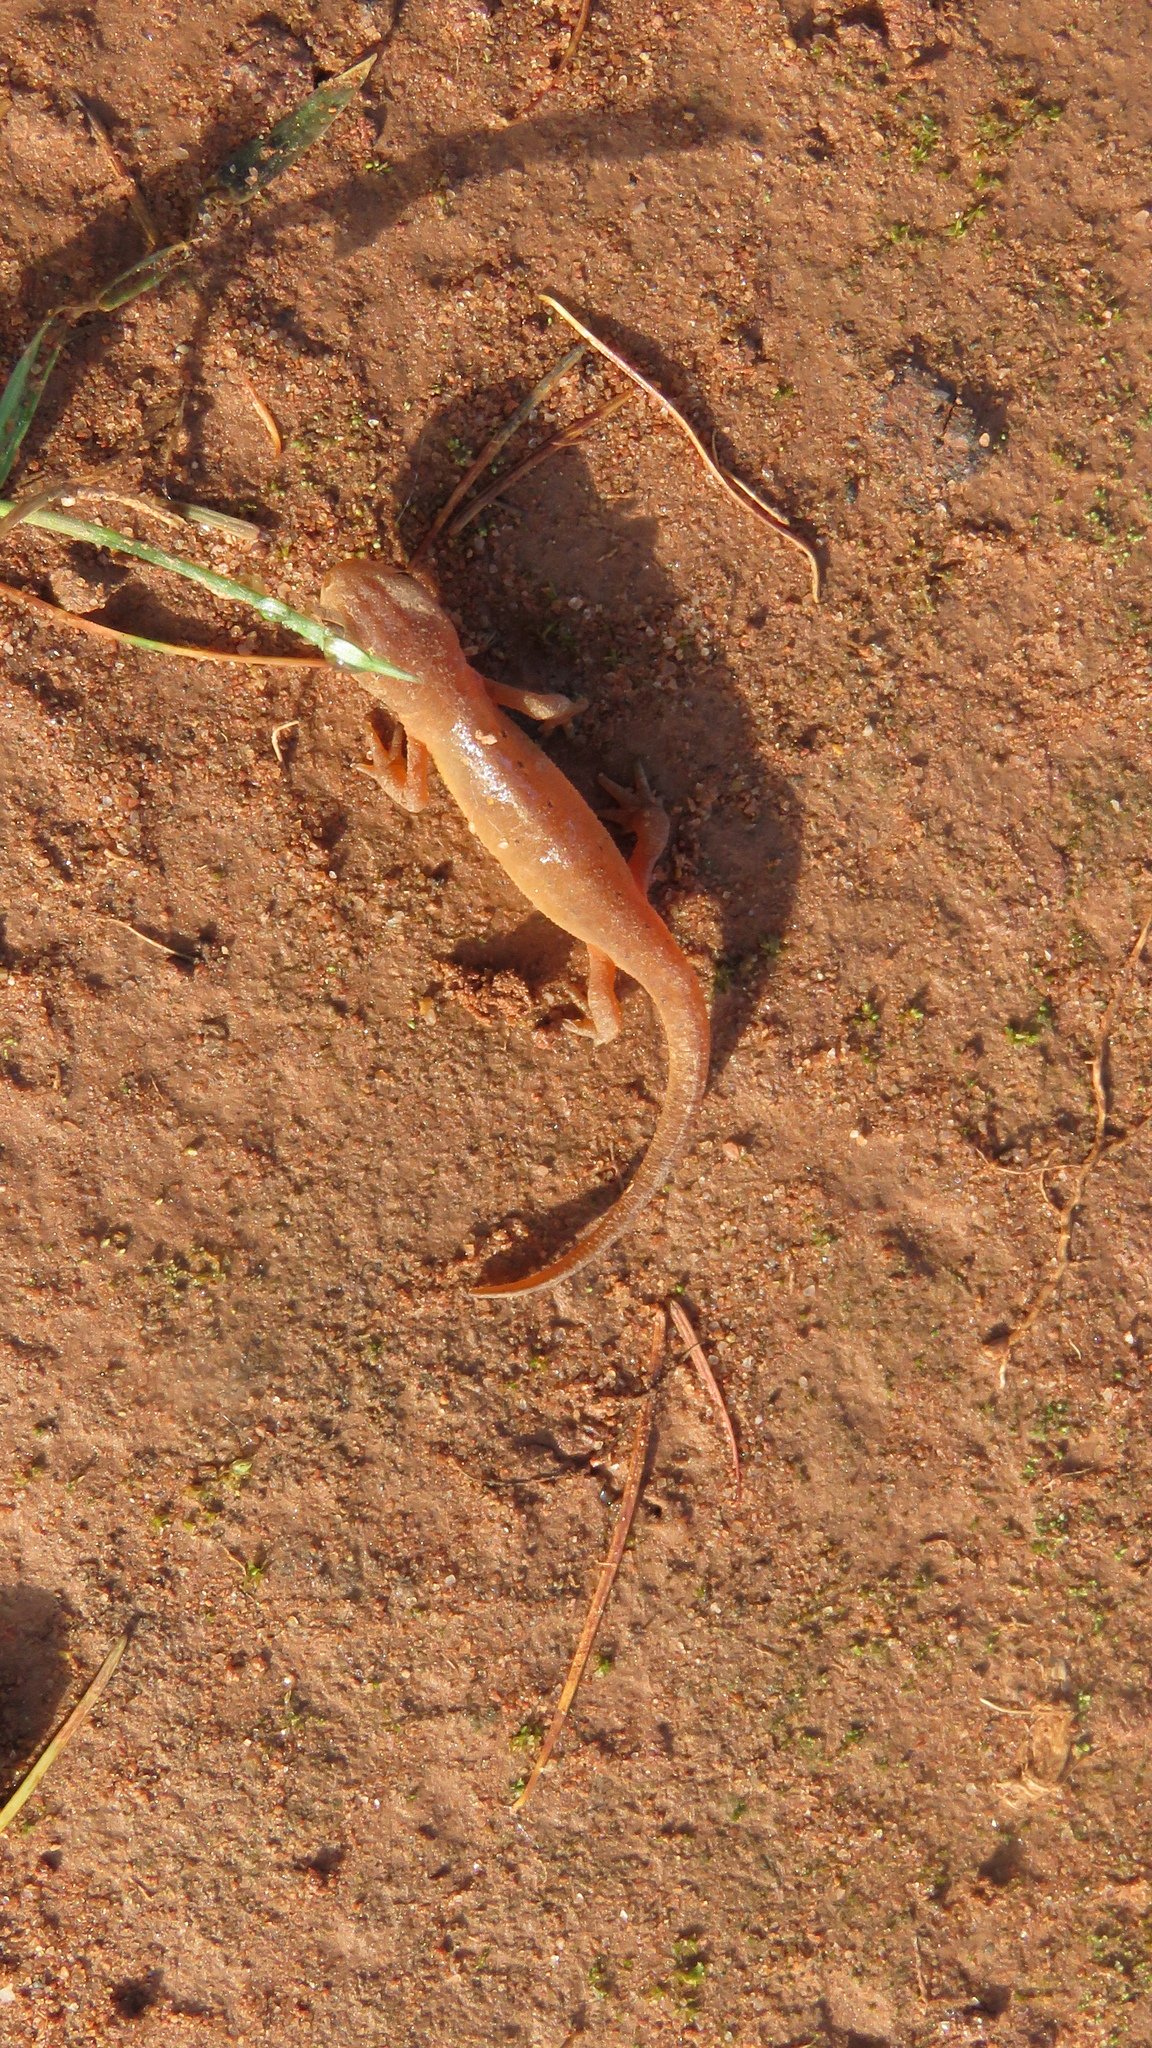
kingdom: Animalia
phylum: Chordata
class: Amphibia
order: Caudata
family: Salamandridae
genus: Notophthalmus
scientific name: Notophthalmus viridescens
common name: Eastern newt
